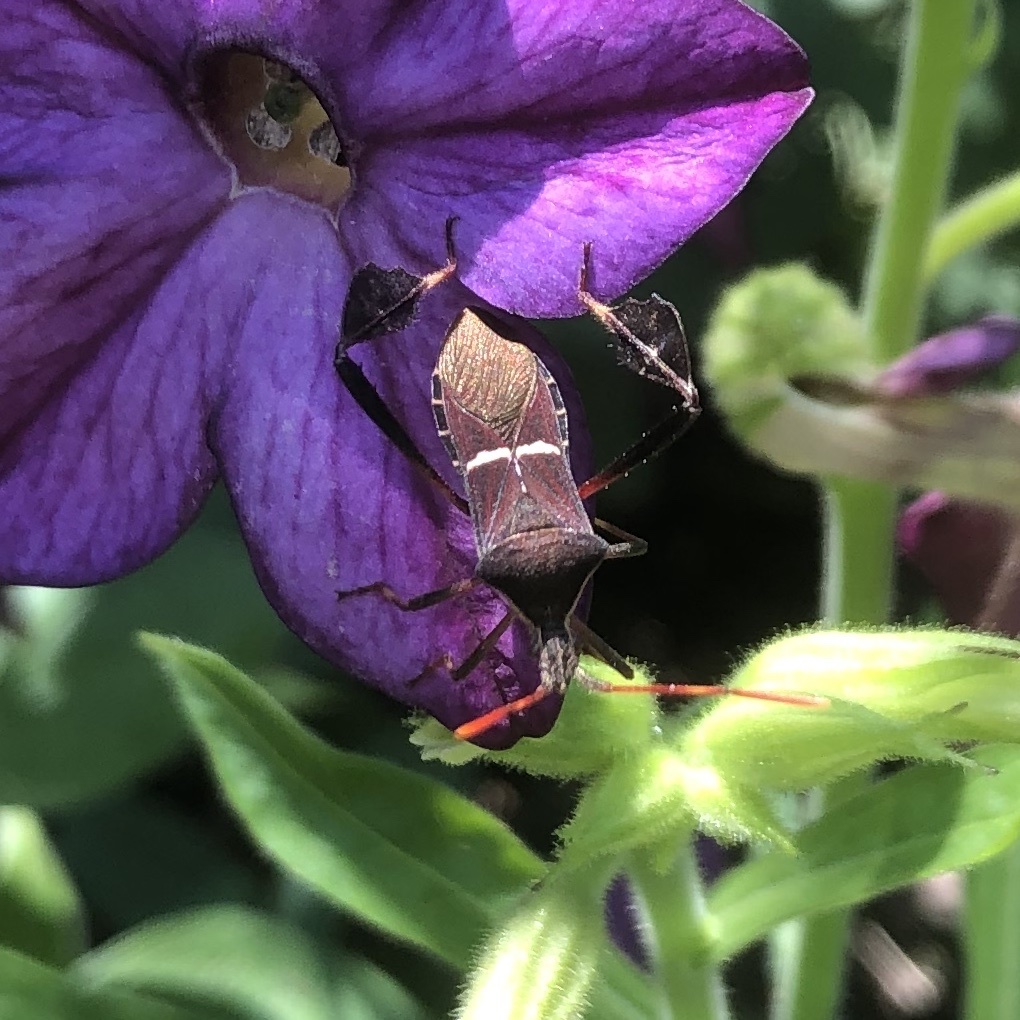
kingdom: Animalia
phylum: Arthropoda
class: Insecta
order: Hemiptera
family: Coreidae
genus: Leptoglossus
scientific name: Leptoglossus phyllopus
